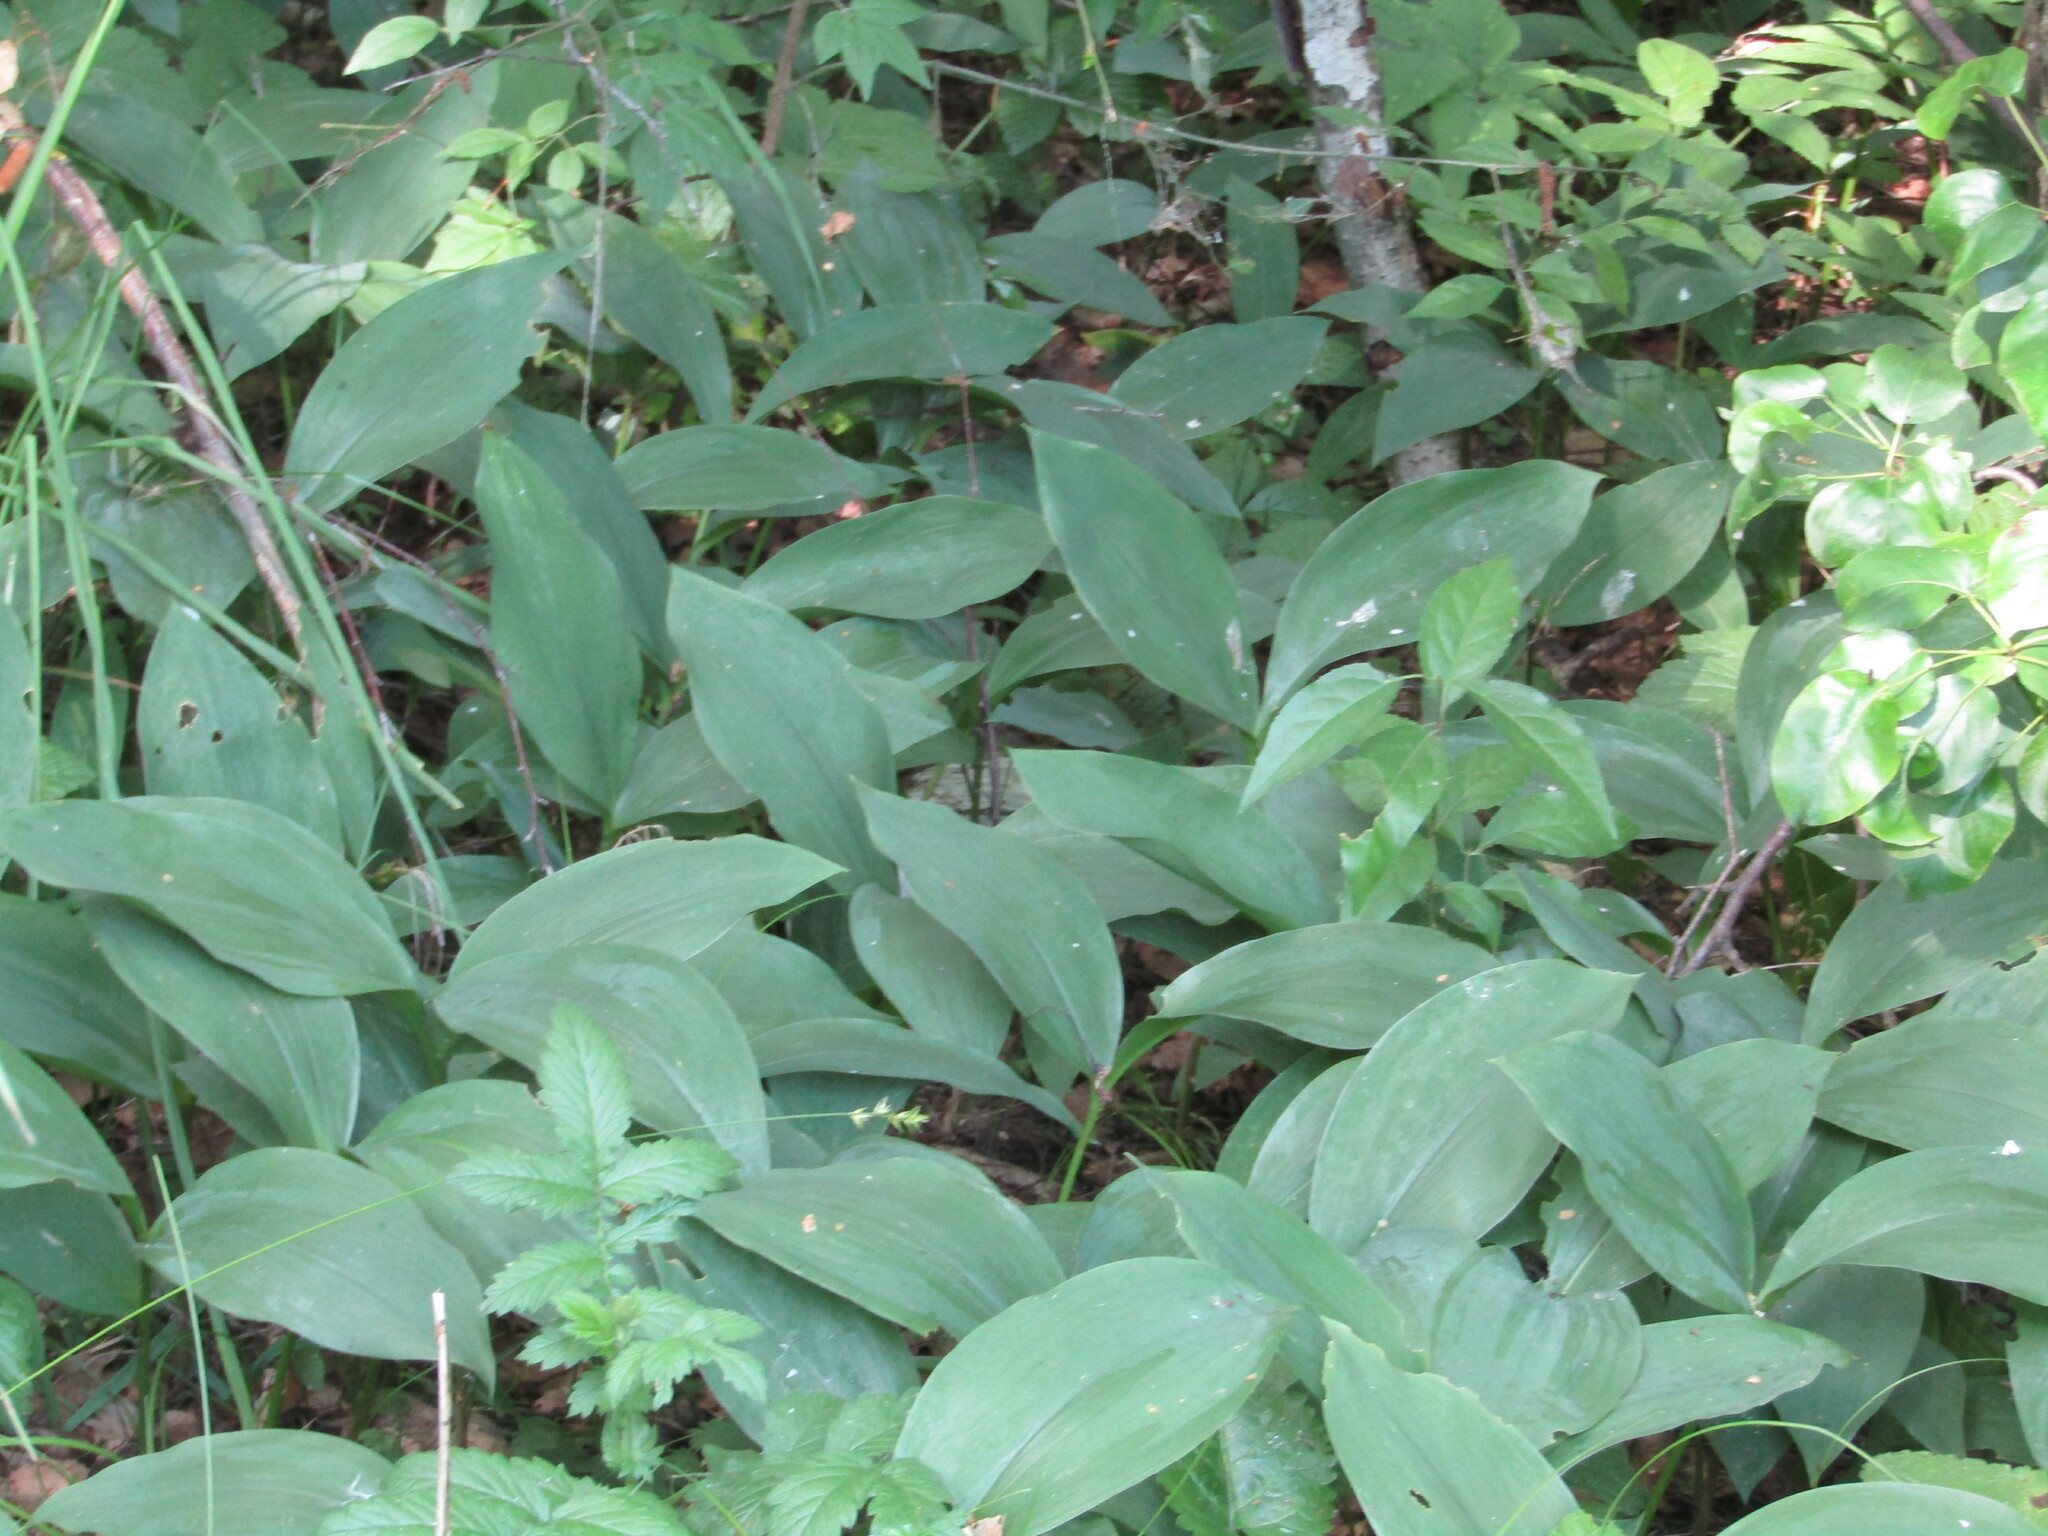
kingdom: Plantae
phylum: Tracheophyta
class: Liliopsida
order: Asparagales
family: Asparagaceae
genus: Convallaria
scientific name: Convallaria majalis
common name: Lily-of-the-valley
